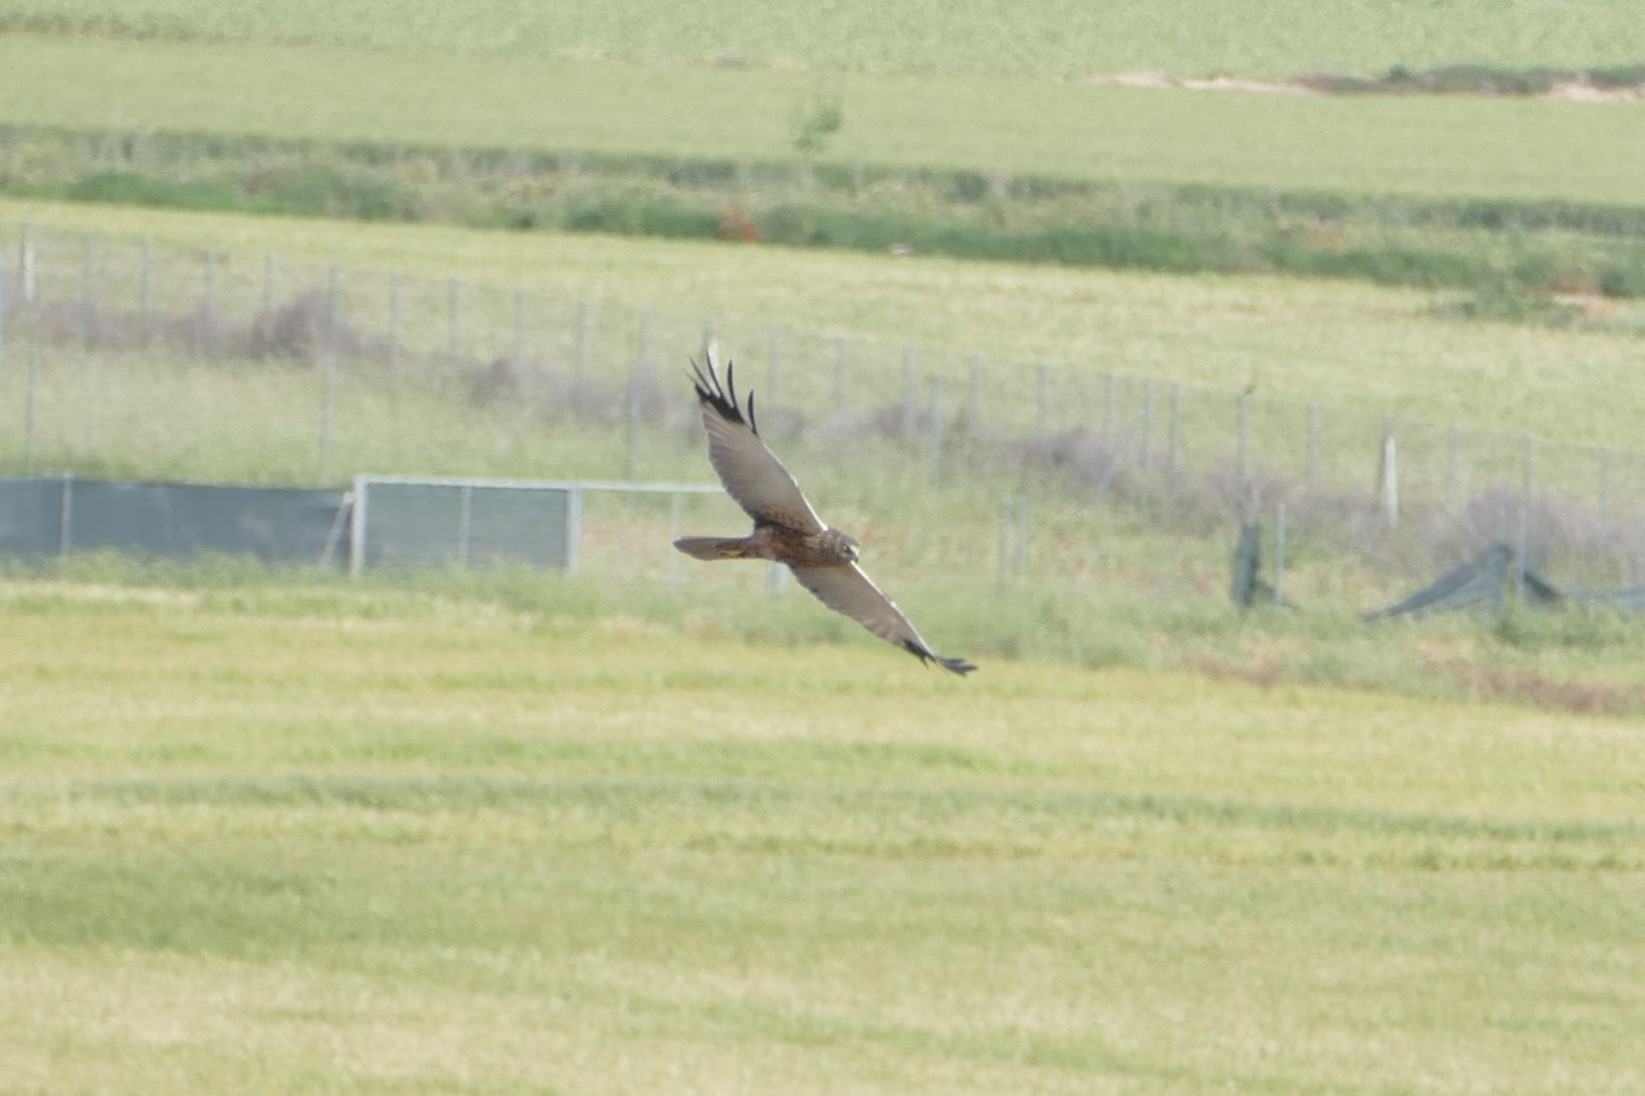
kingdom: Animalia
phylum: Chordata
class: Aves
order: Accipitriformes
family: Accipitridae
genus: Circus
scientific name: Circus aeruginosus
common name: Western marsh harrier
